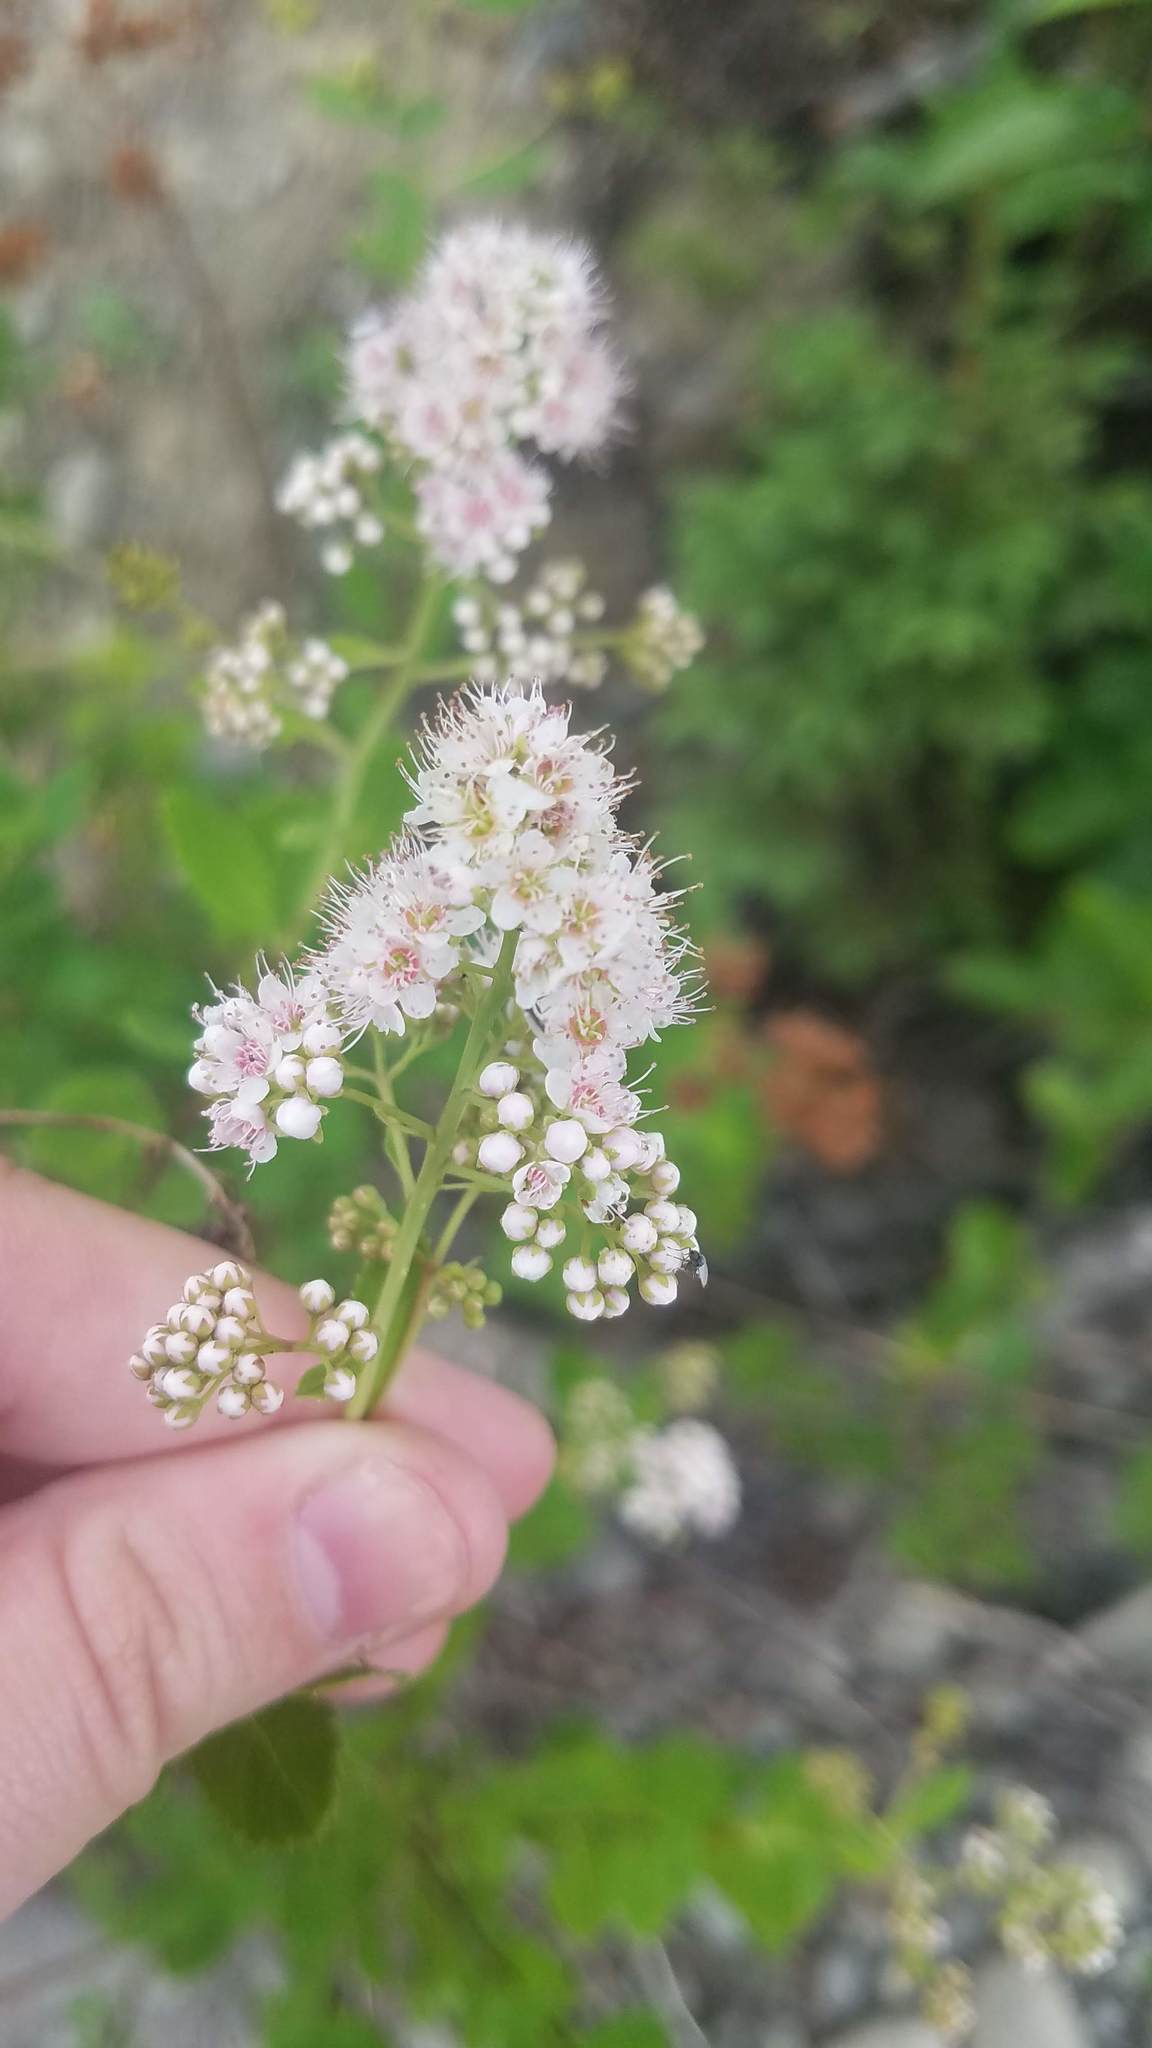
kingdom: Plantae
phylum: Tracheophyta
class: Magnoliopsida
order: Rosales
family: Rosaceae
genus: Spiraea
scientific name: Spiraea alba
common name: Pale bridewort
